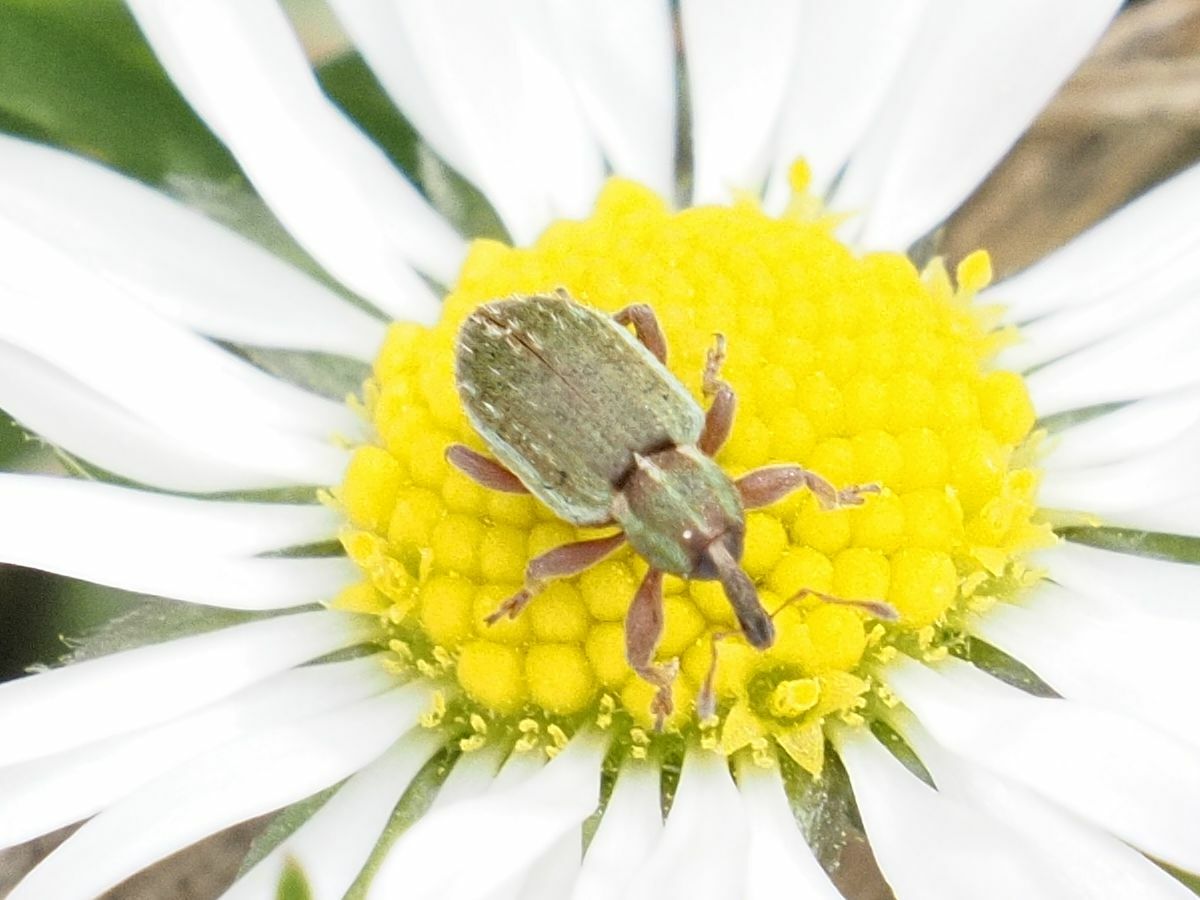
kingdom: Animalia
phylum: Arthropoda
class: Insecta
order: Coleoptera
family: Curculionidae
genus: Hypera
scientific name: Hypera nigrirostris
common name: Black-beaked green weevil
